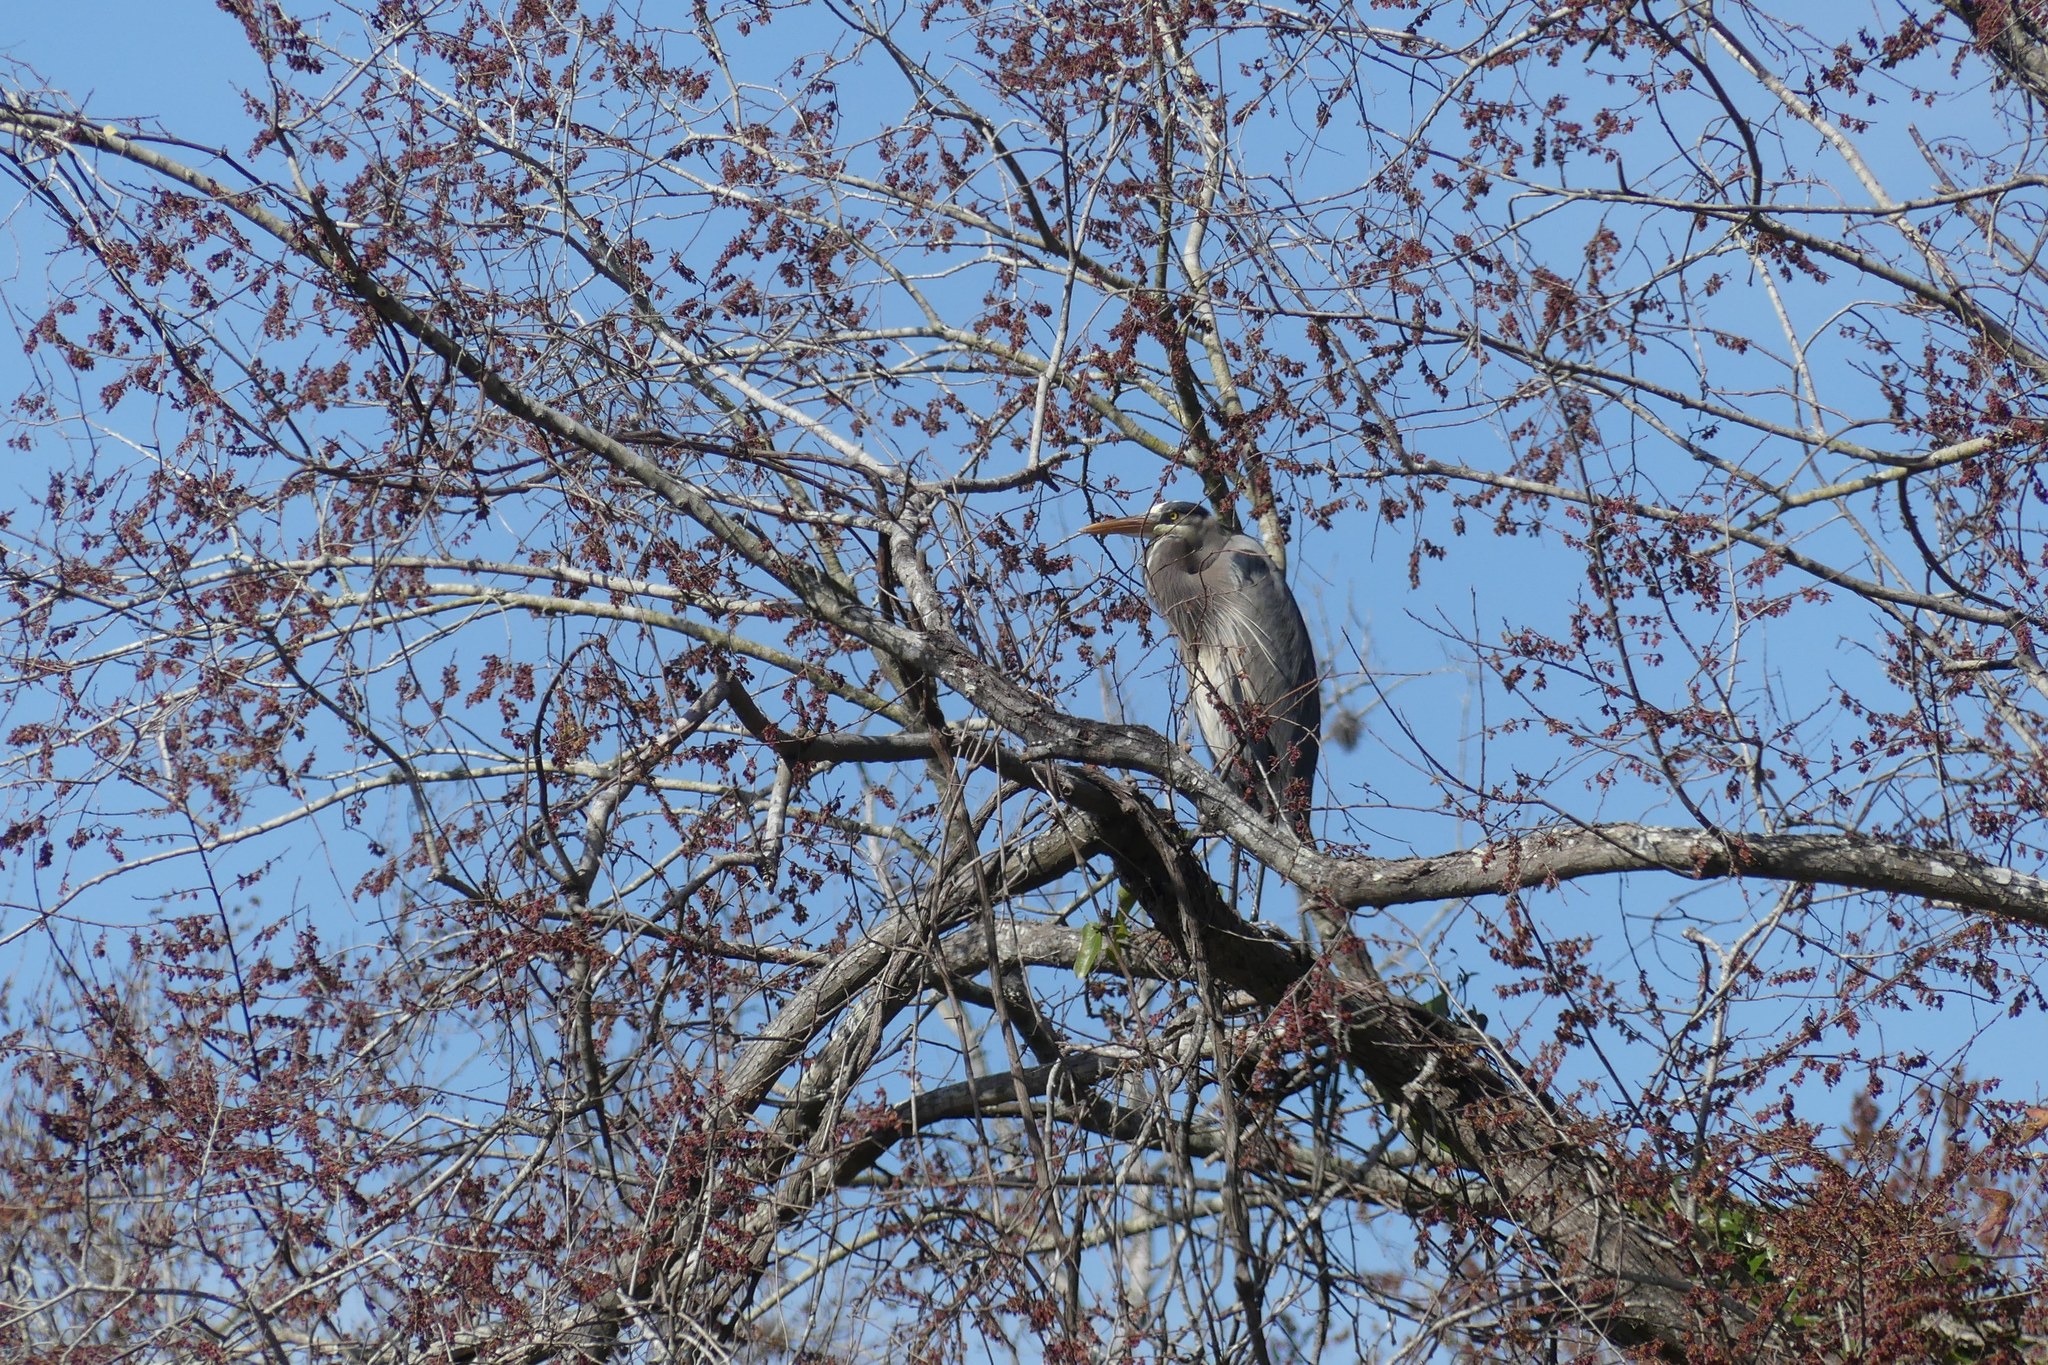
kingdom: Animalia
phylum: Chordata
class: Aves
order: Pelecaniformes
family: Ardeidae
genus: Ardea
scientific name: Ardea herodias
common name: Great blue heron
